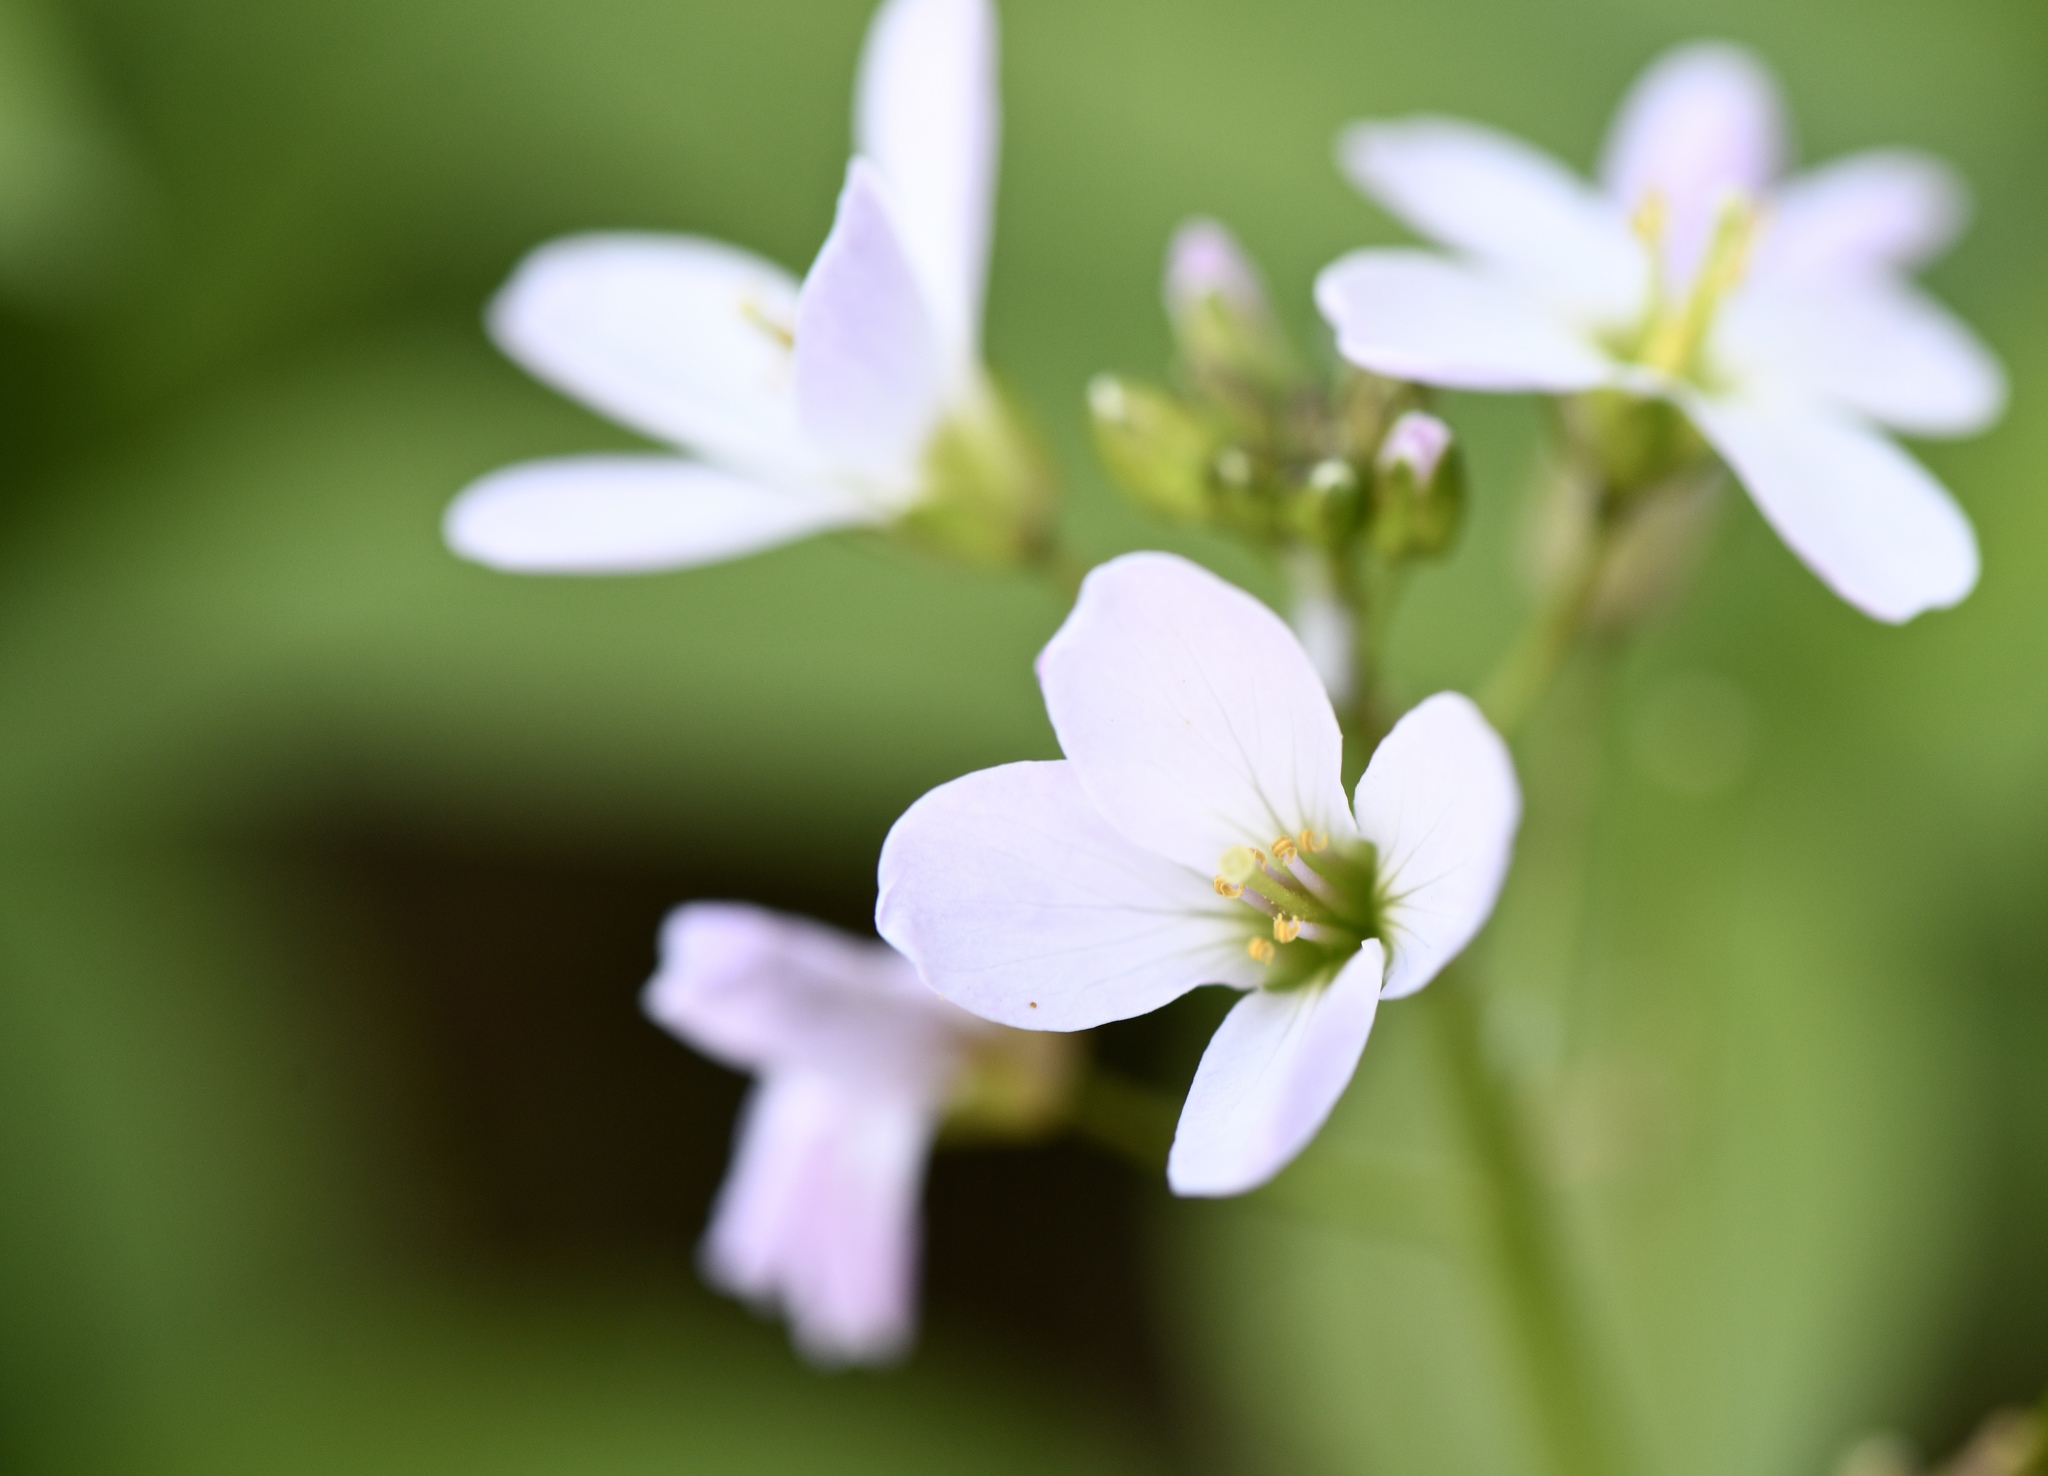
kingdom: Plantae
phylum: Tracheophyta
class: Magnoliopsida
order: Brassicales
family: Brassicaceae
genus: Cardamine
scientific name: Cardamine californica
